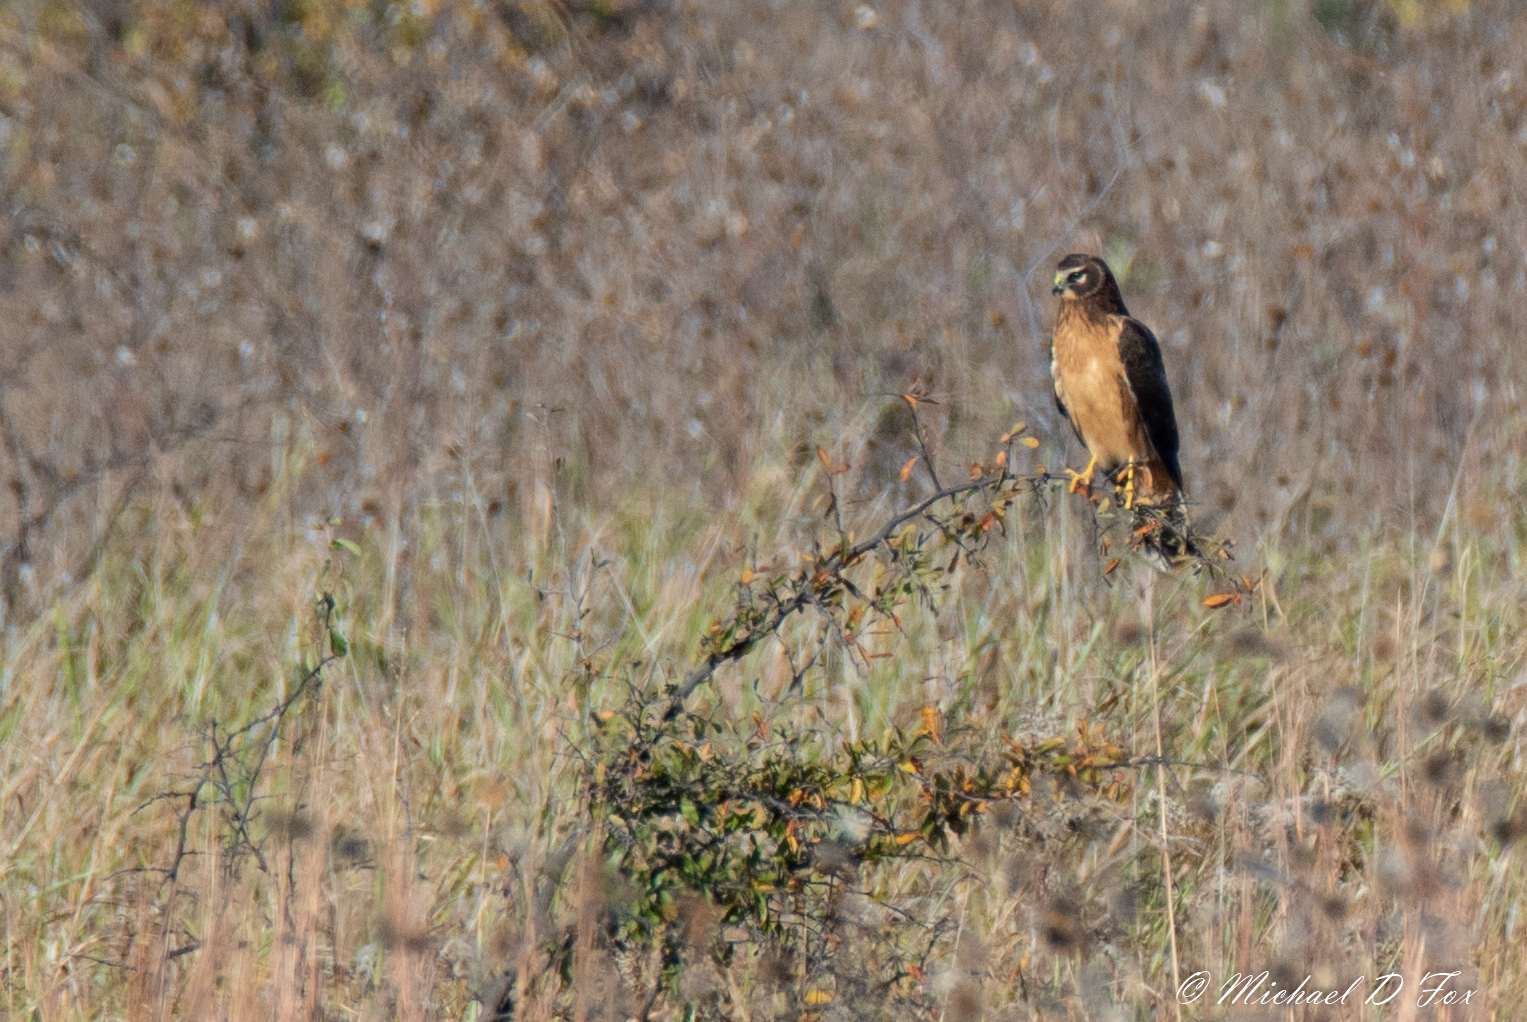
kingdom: Animalia
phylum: Chordata
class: Aves
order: Accipitriformes
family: Accipitridae
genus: Circus
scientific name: Circus cyaneus
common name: Hen harrier
